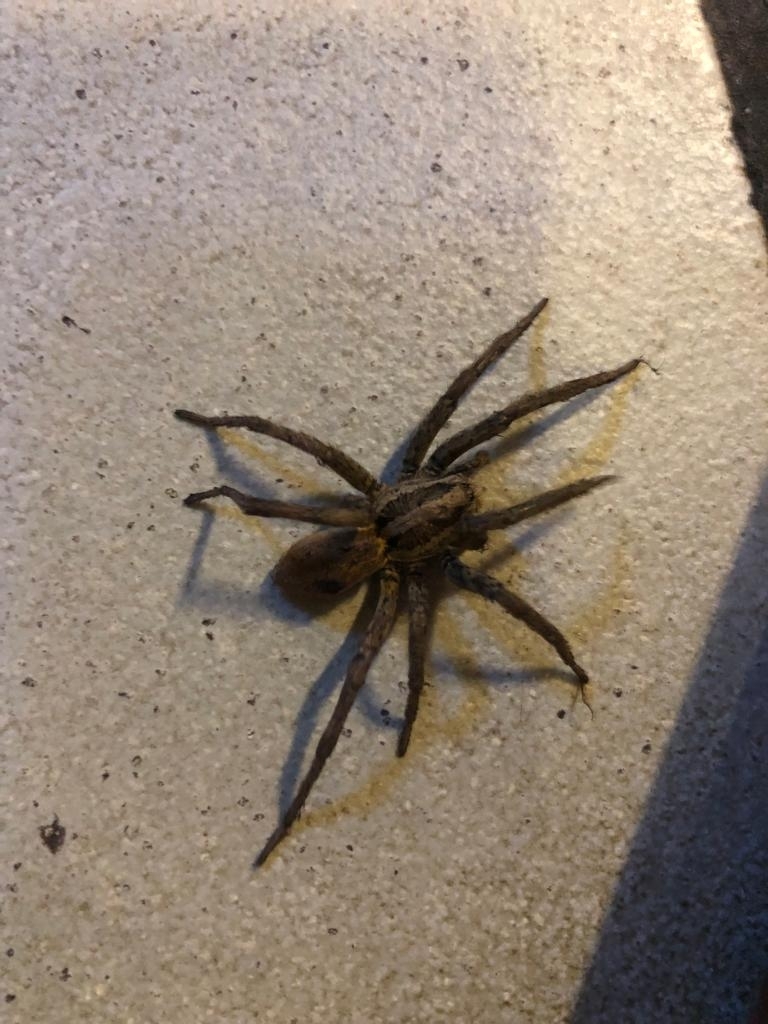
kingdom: Animalia
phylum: Arthropoda
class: Arachnida
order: Araneae
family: Lycosidae
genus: Hogna
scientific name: Hogna radiata
